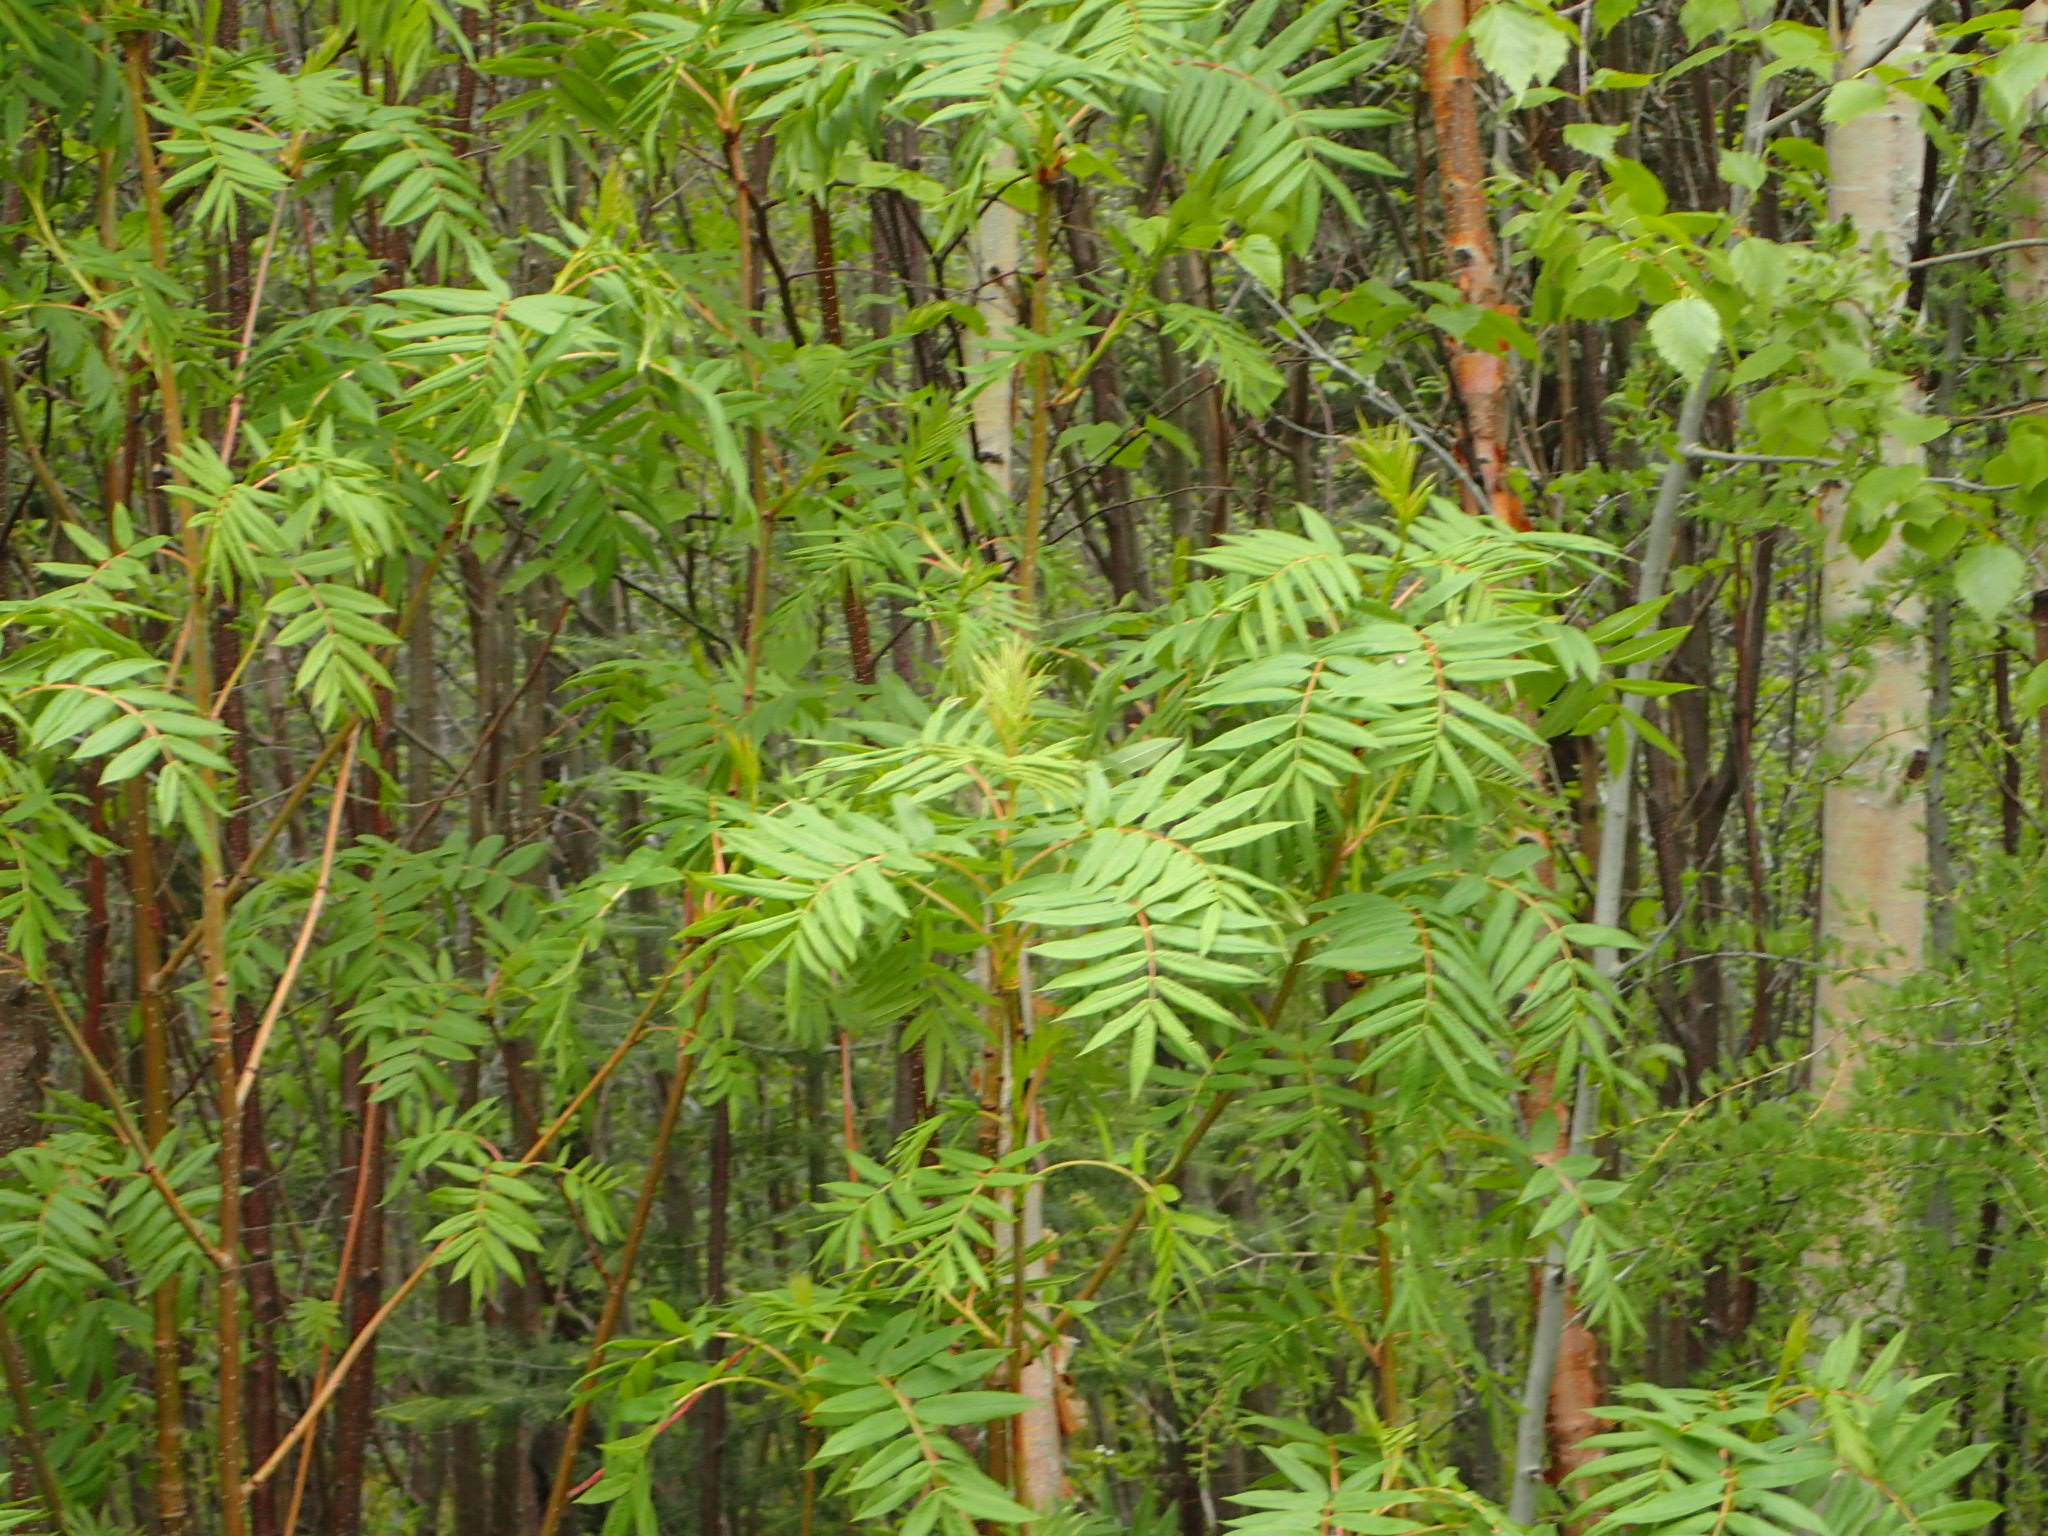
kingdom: Plantae
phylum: Tracheophyta
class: Magnoliopsida
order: Rosales
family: Rosaceae
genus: Sorbus
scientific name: Sorbus americana
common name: American mountain-ash
